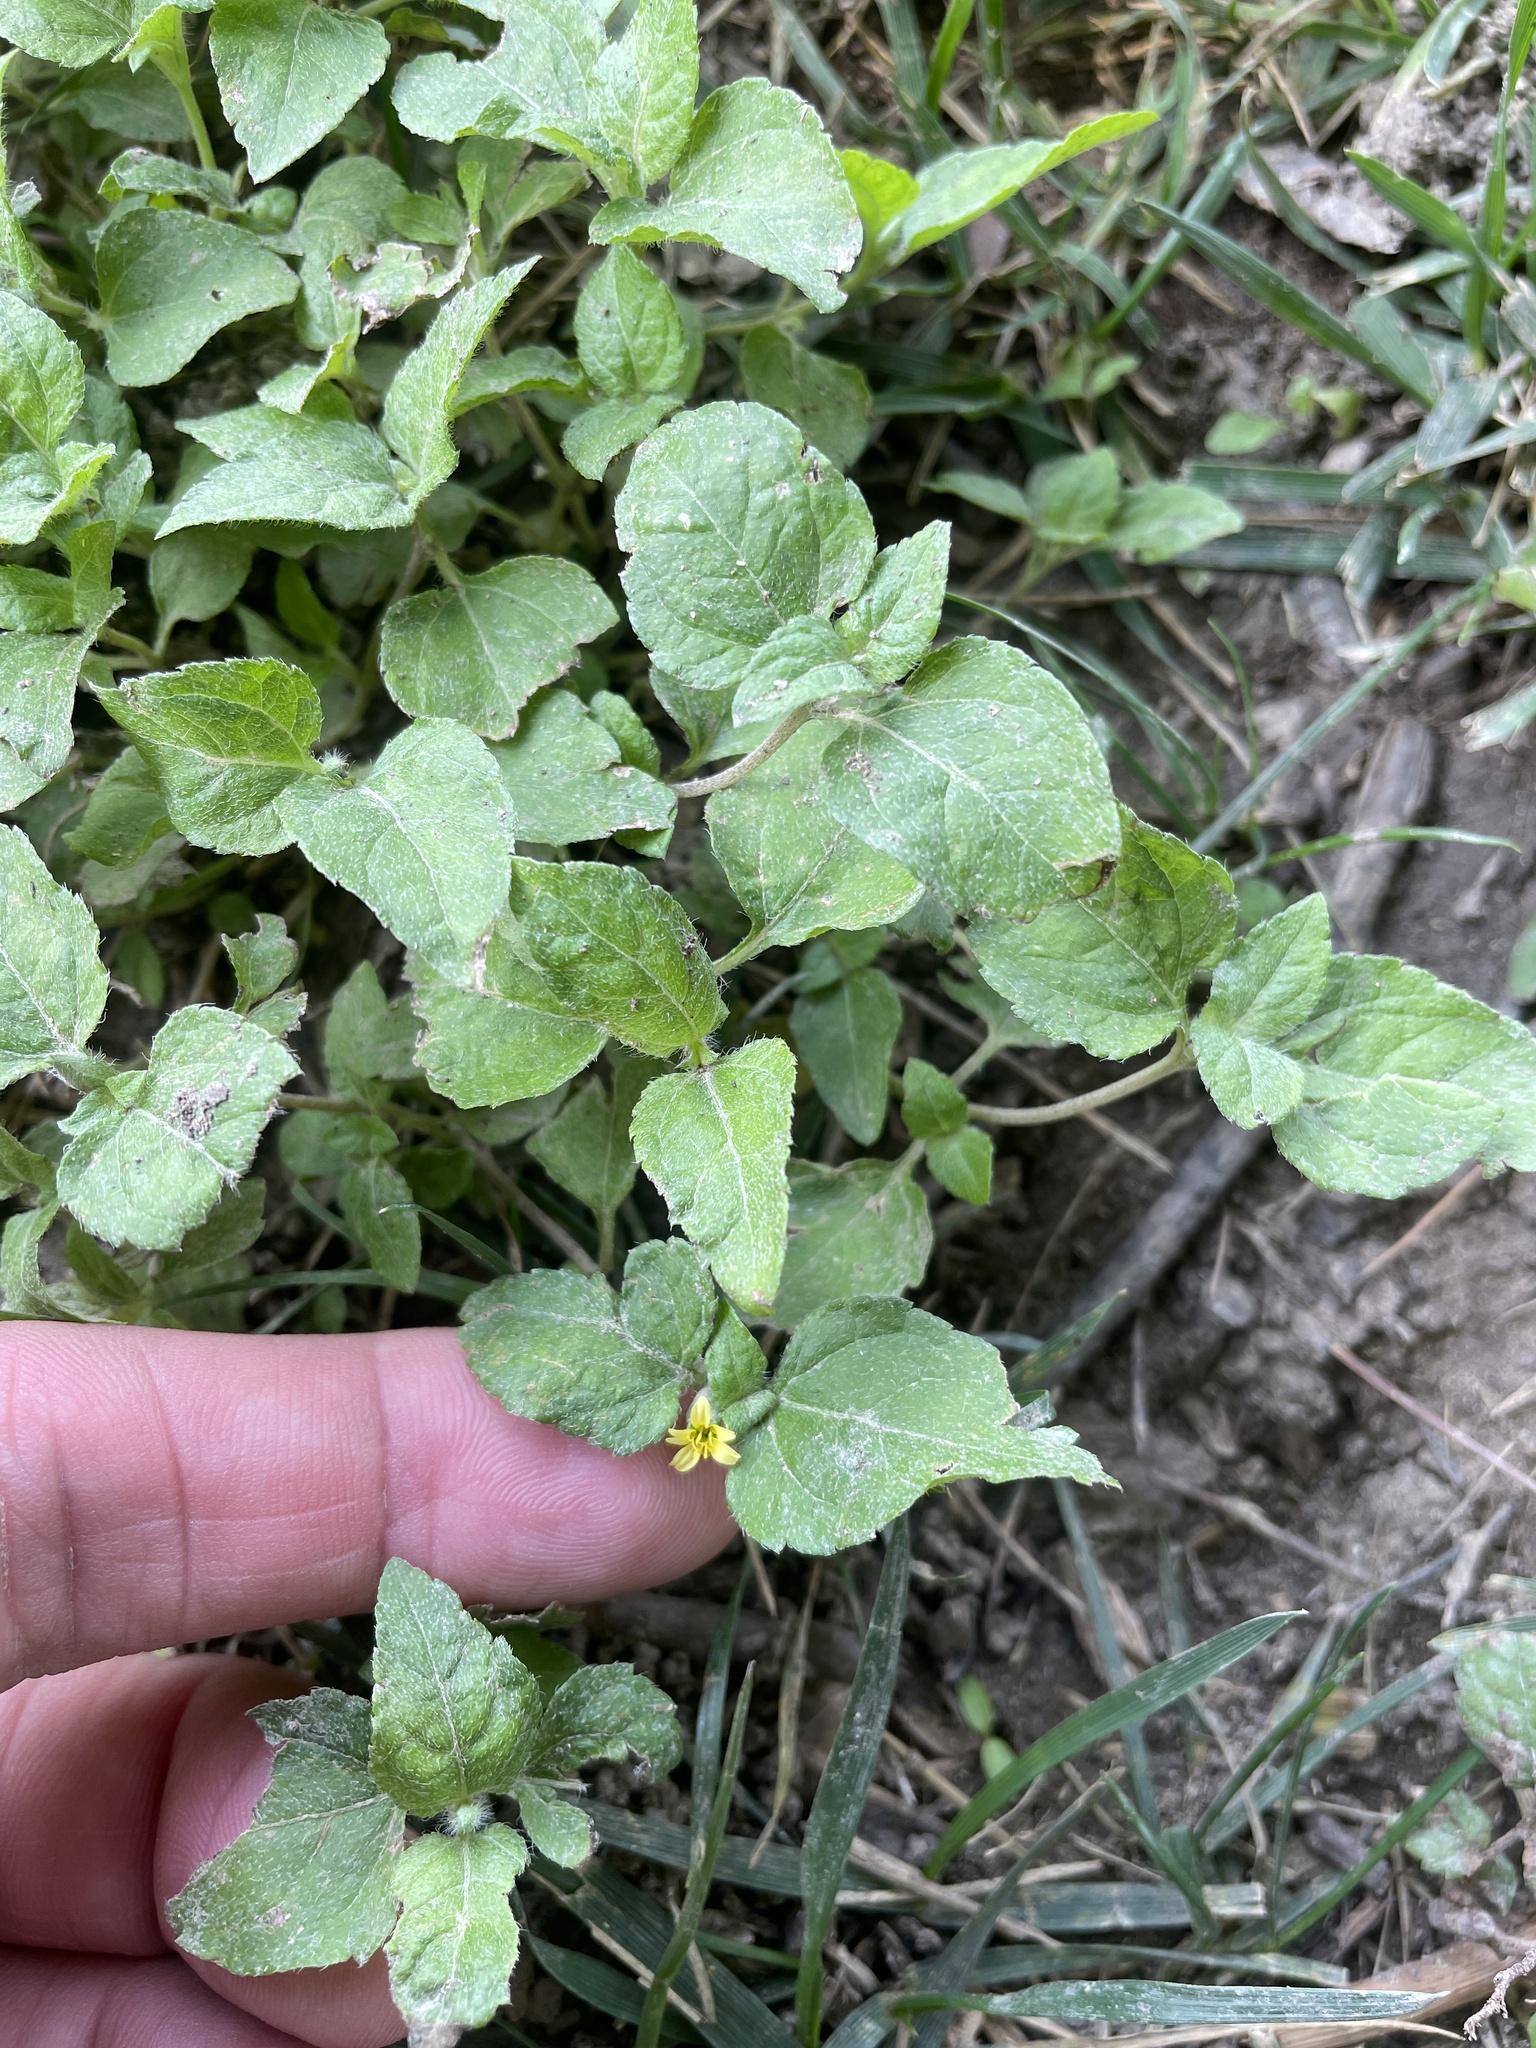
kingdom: Plantae
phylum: Tracheophyta
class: Magnoliopsida
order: Asterales
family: Asteraceae
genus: Calyptocarpus
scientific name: Calyptocarpus vialis
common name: Straggler daisy
